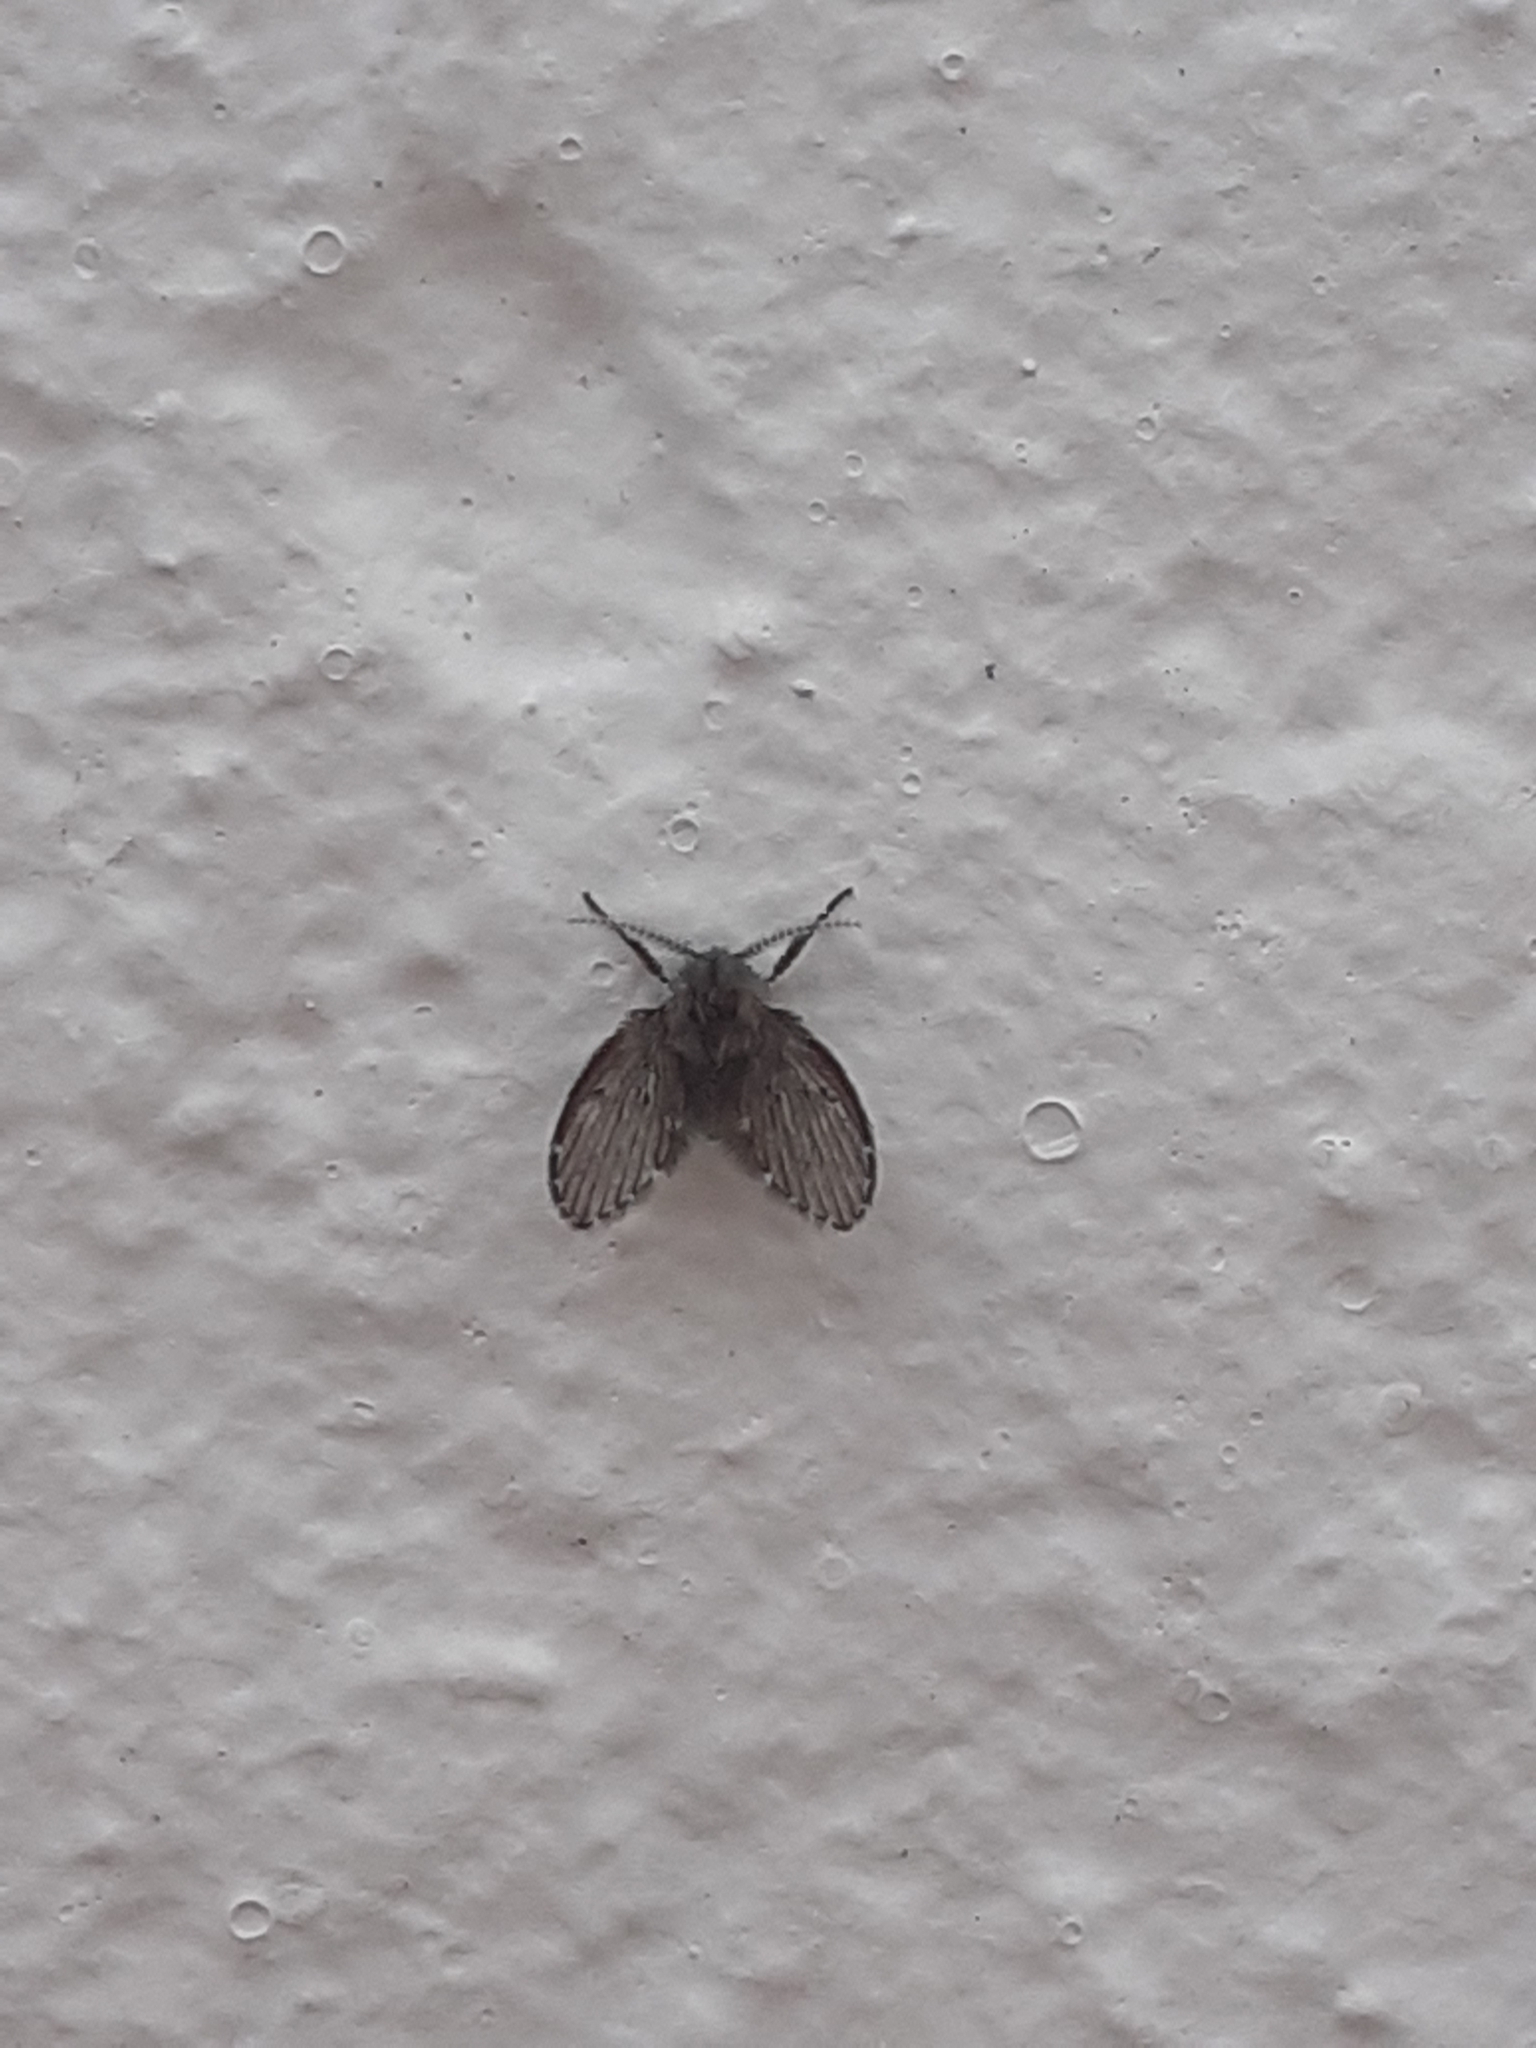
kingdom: Animalia
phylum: Arthropoda
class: Insecta
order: Diptera
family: Psychodidae
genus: Clogmia
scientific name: Clogmia albipunctatus
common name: White-spotted moth fly
